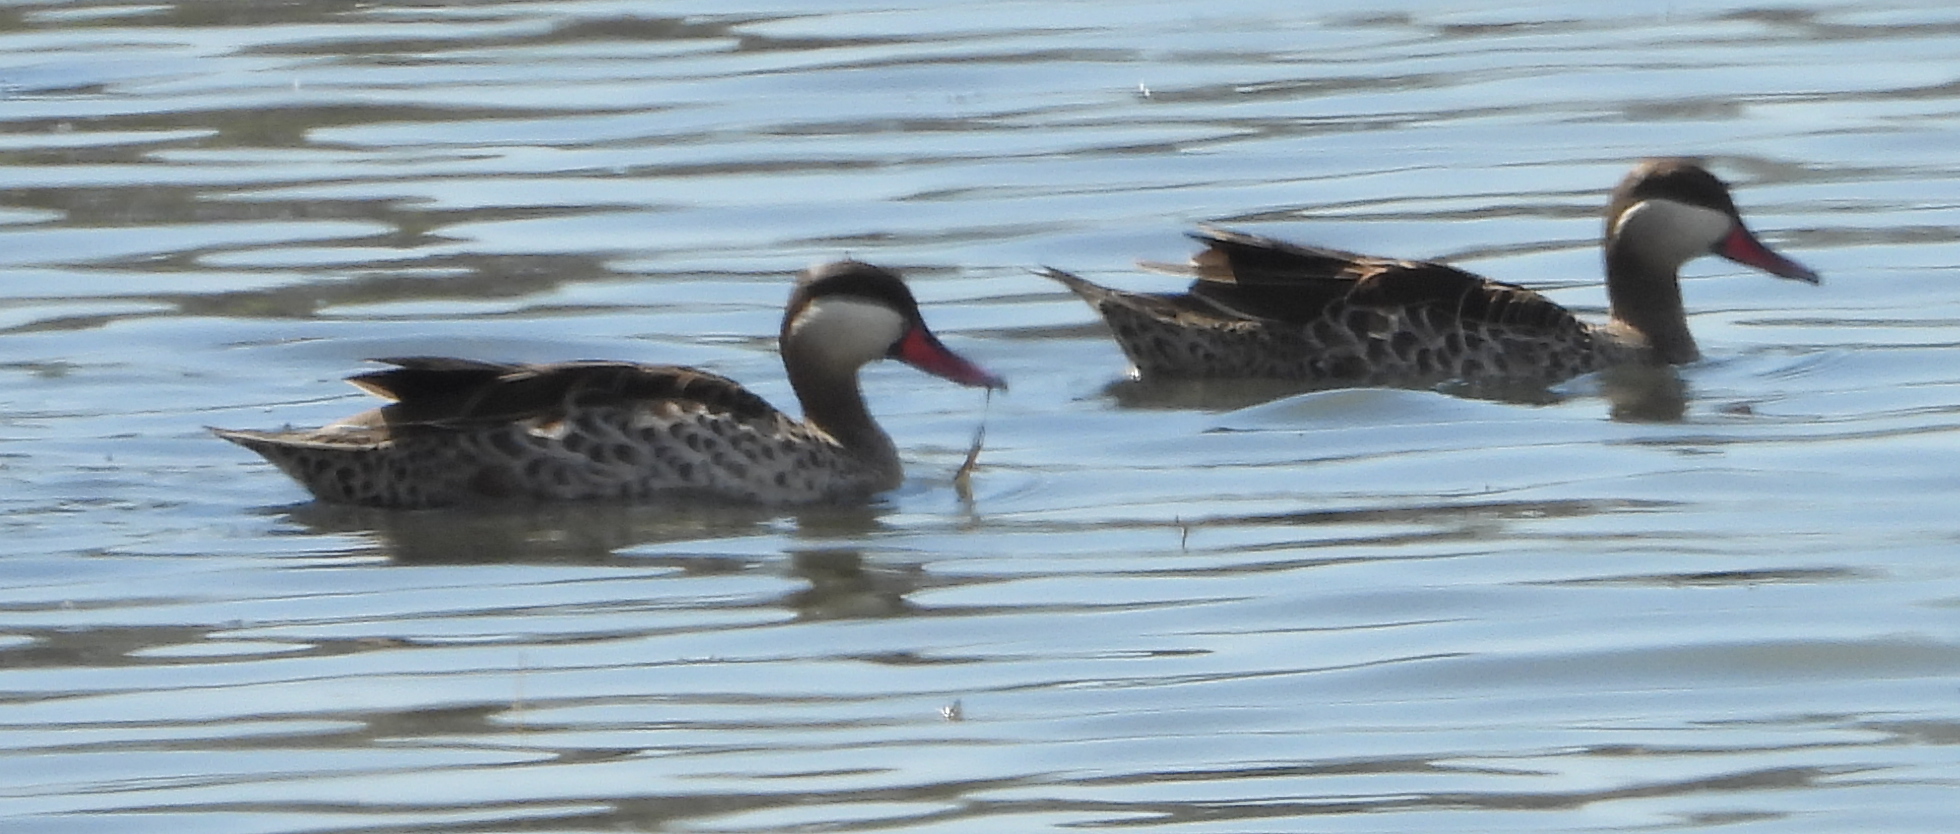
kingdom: Animalia
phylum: Chordata
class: Aves
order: Anseriformes
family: Anatidae
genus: Anas
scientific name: Anas erythrorhyncha
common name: Red-billed teal
